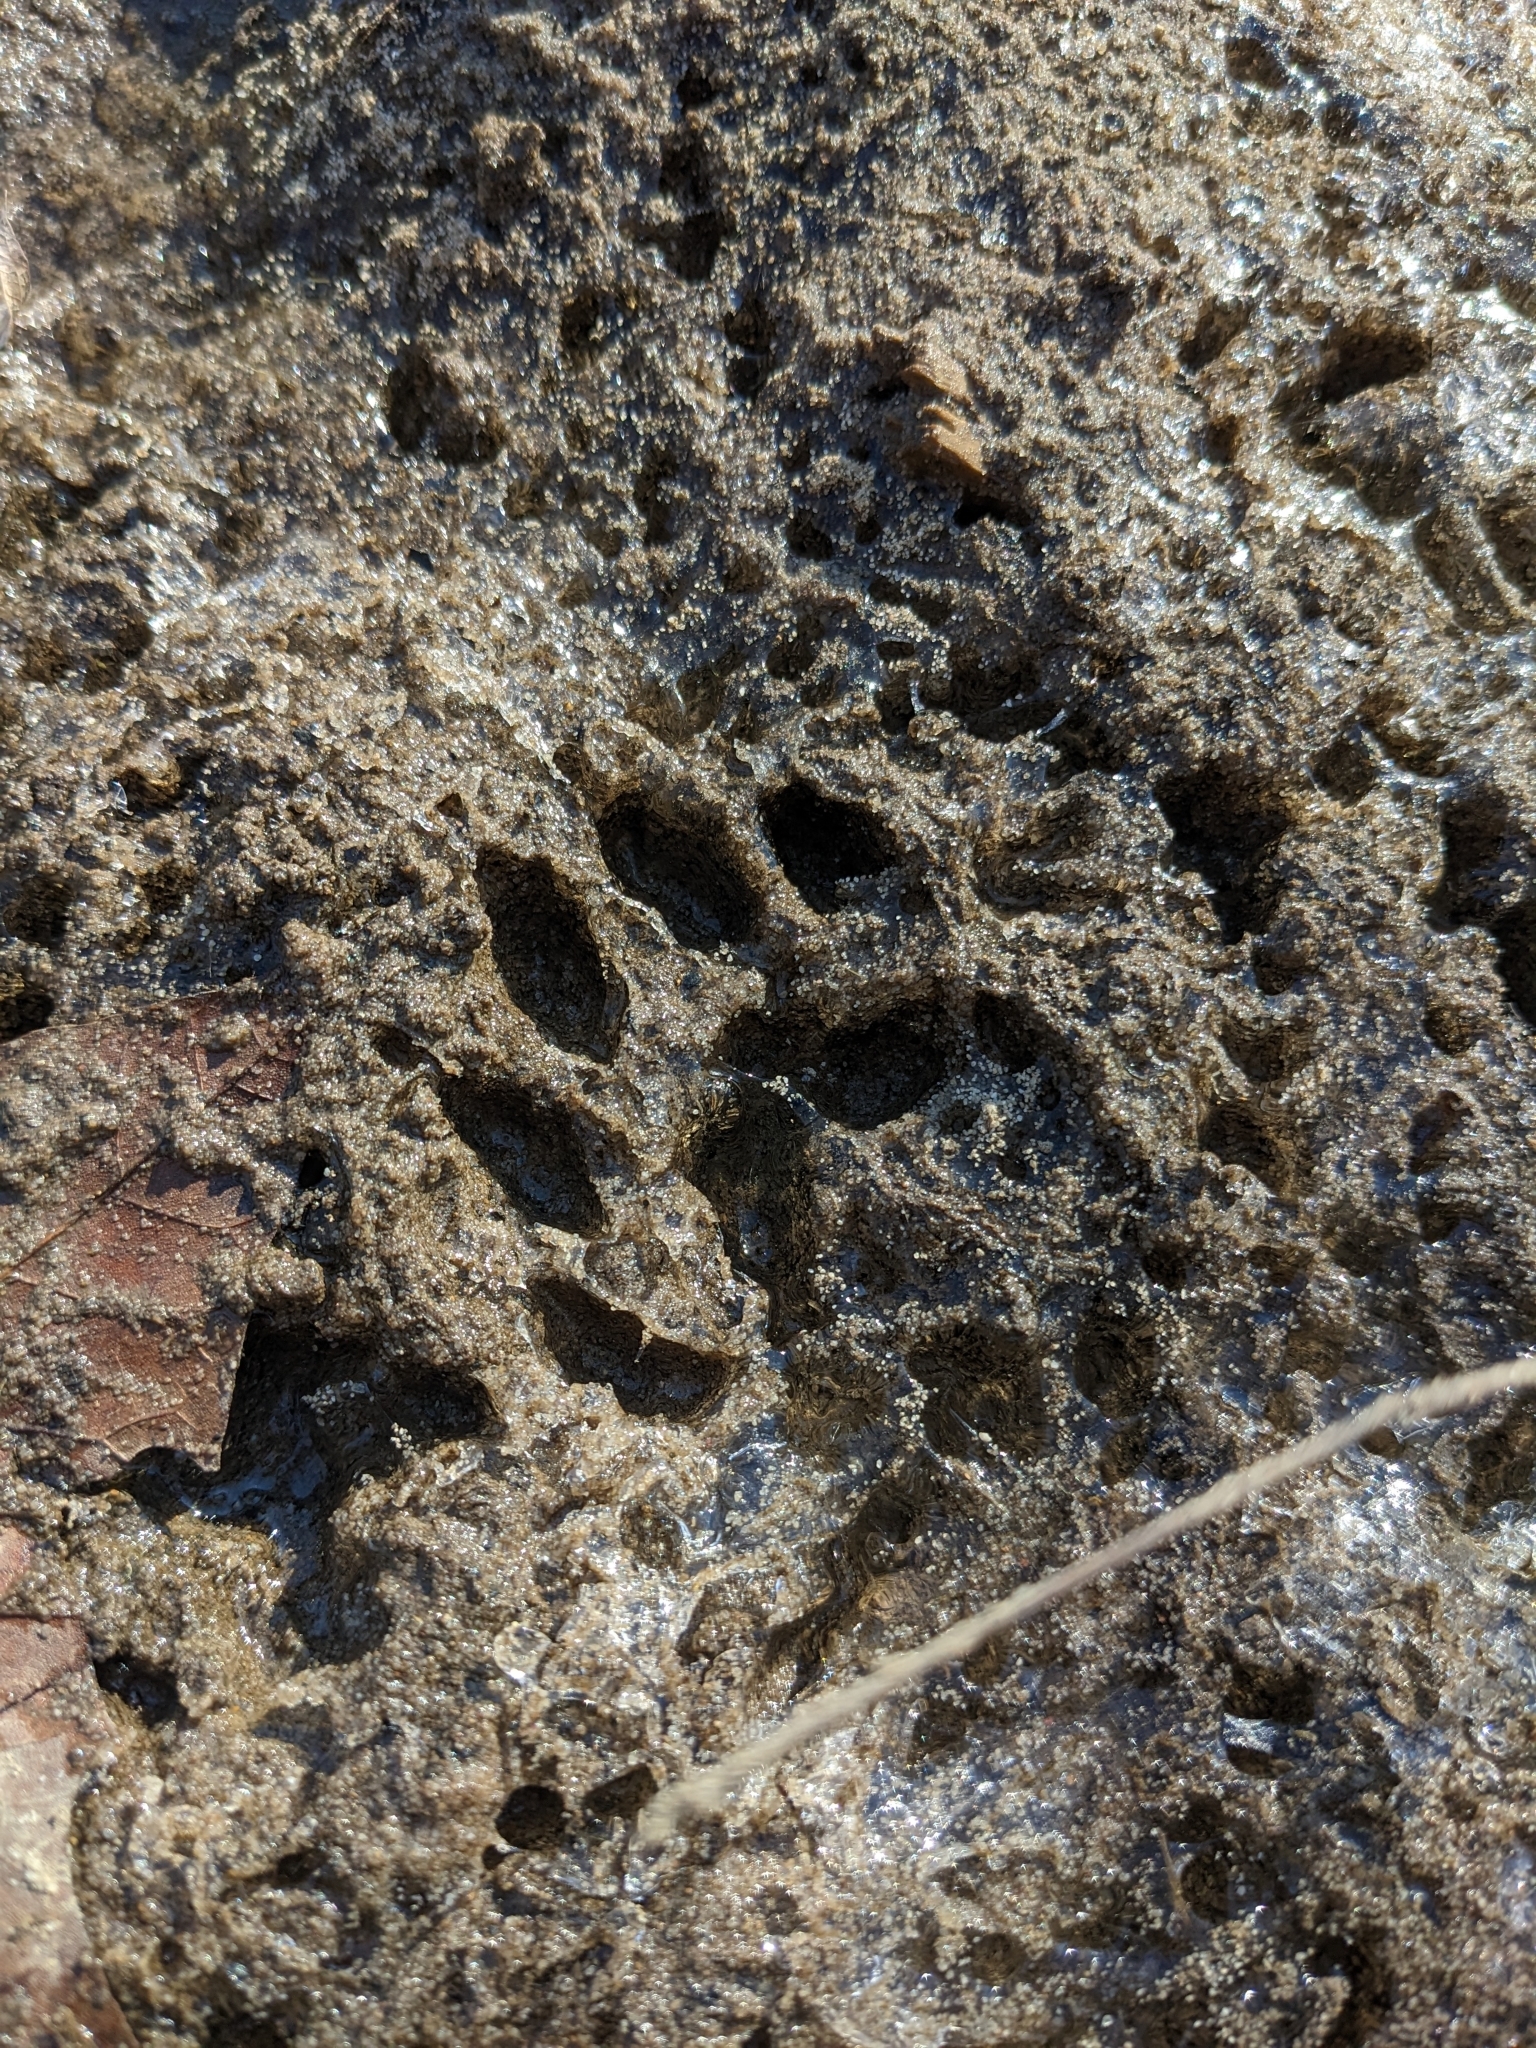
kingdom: Animalia
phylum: Chordata
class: Mammalia
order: Carnivora
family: Procyonidae
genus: Procyon
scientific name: Procyon lotor
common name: Raccoon
